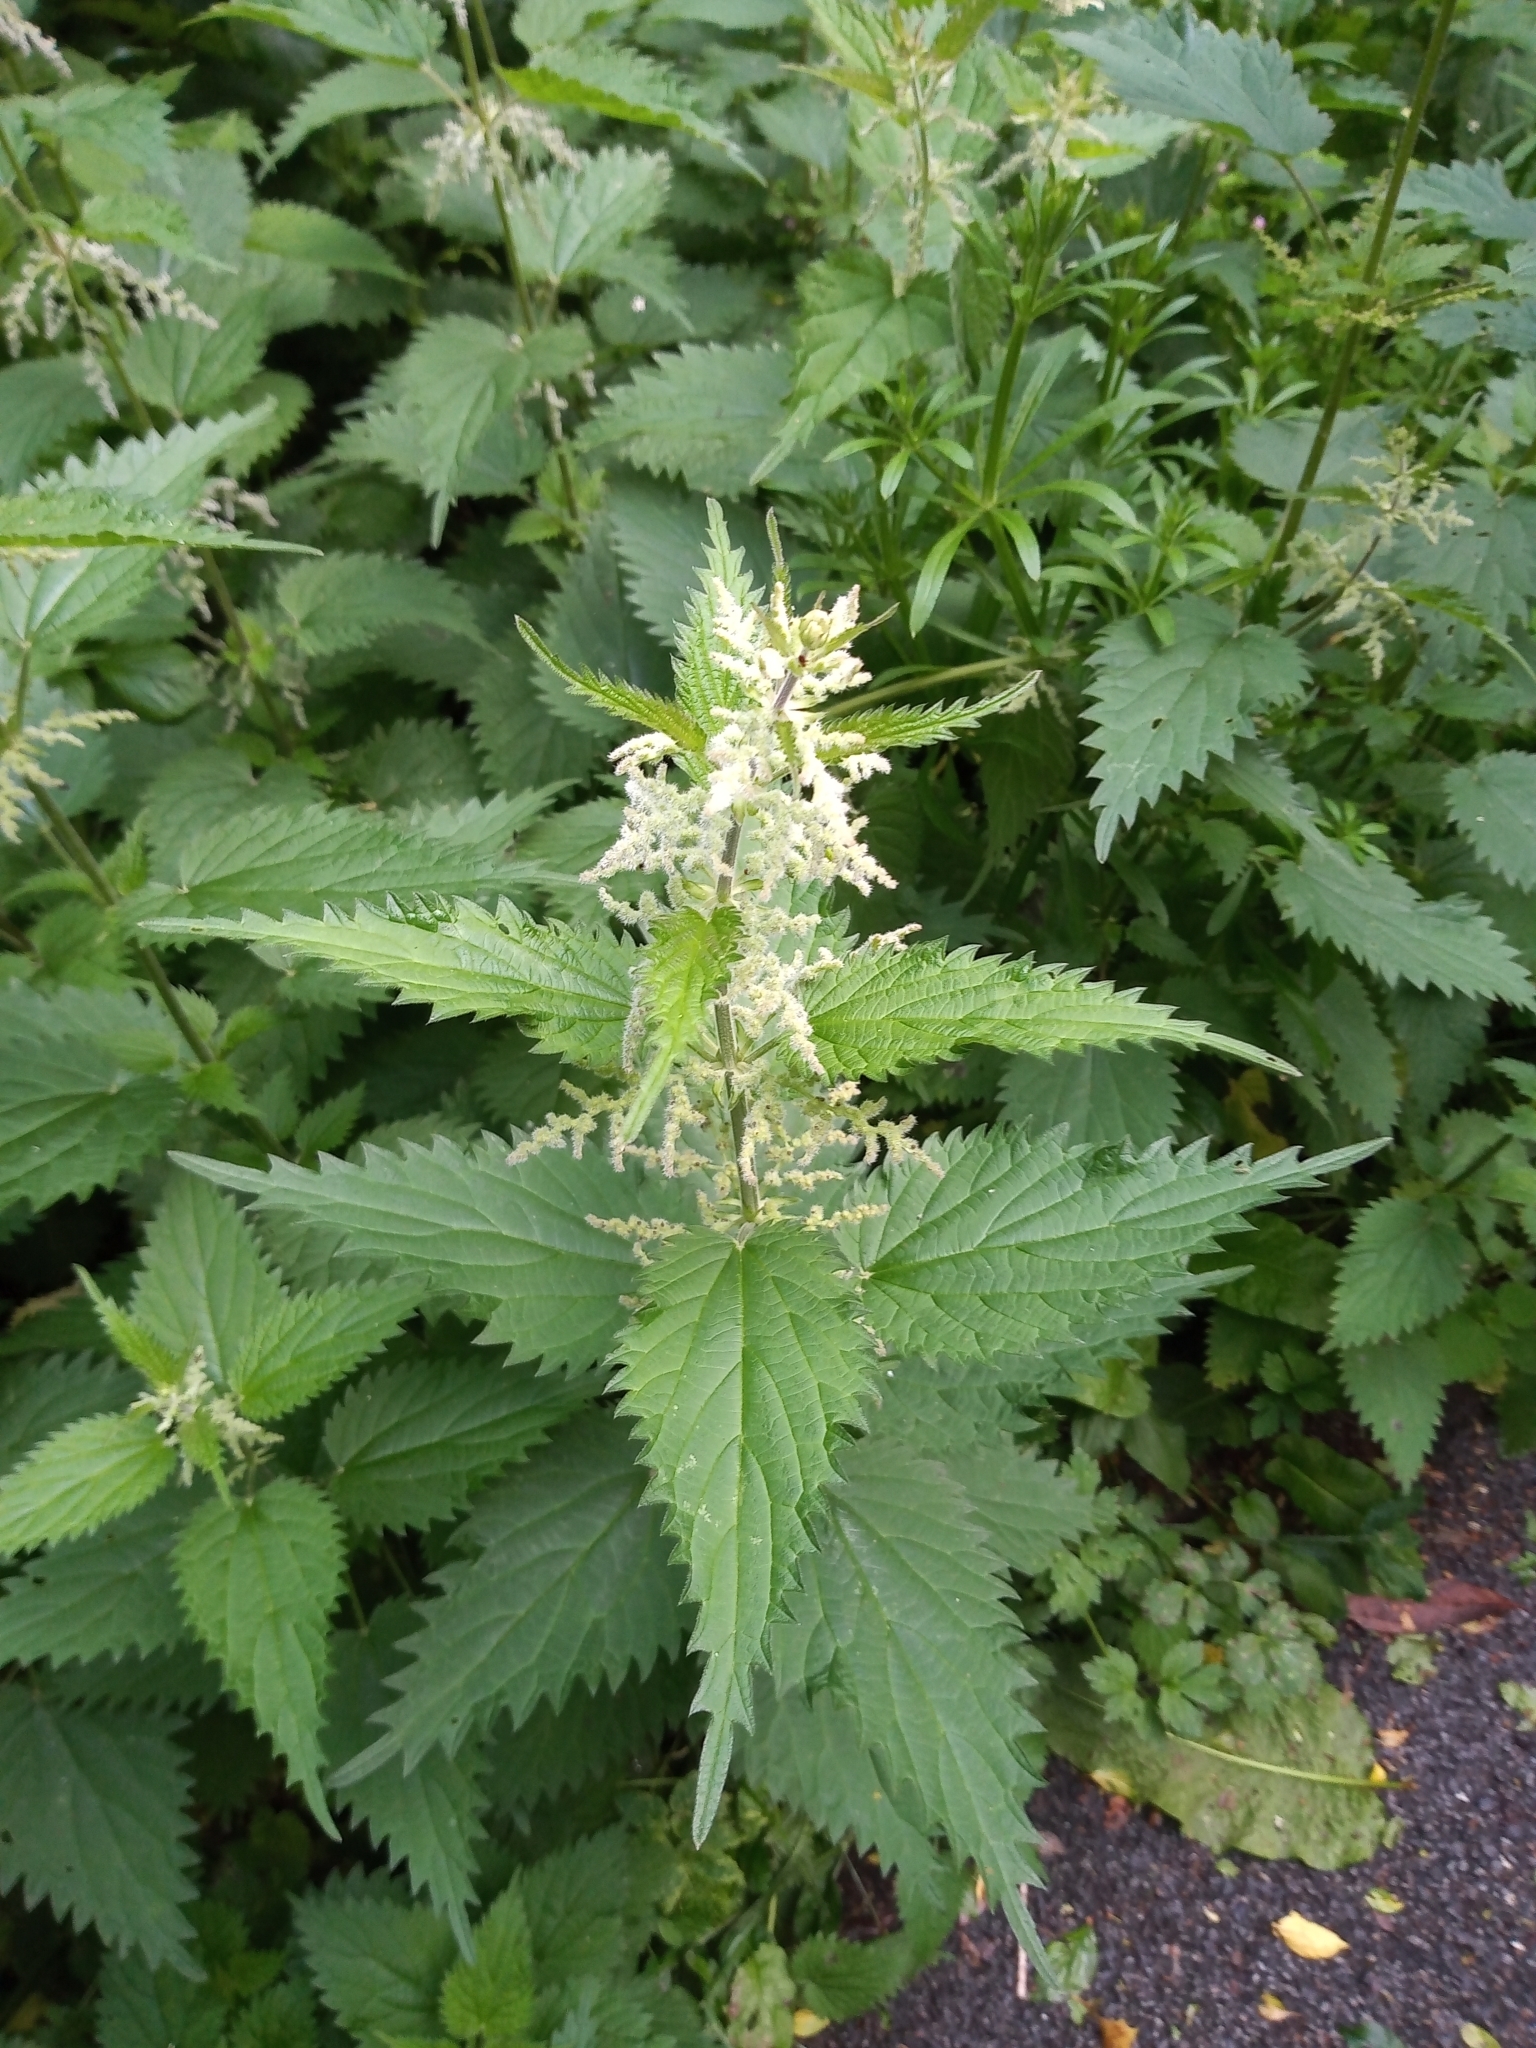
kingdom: Plantae
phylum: Tracheophyta
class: Magnoliopsida
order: Rosales
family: Urticaceae
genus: Urtica
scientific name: Urtica dioica
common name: Common nettle
